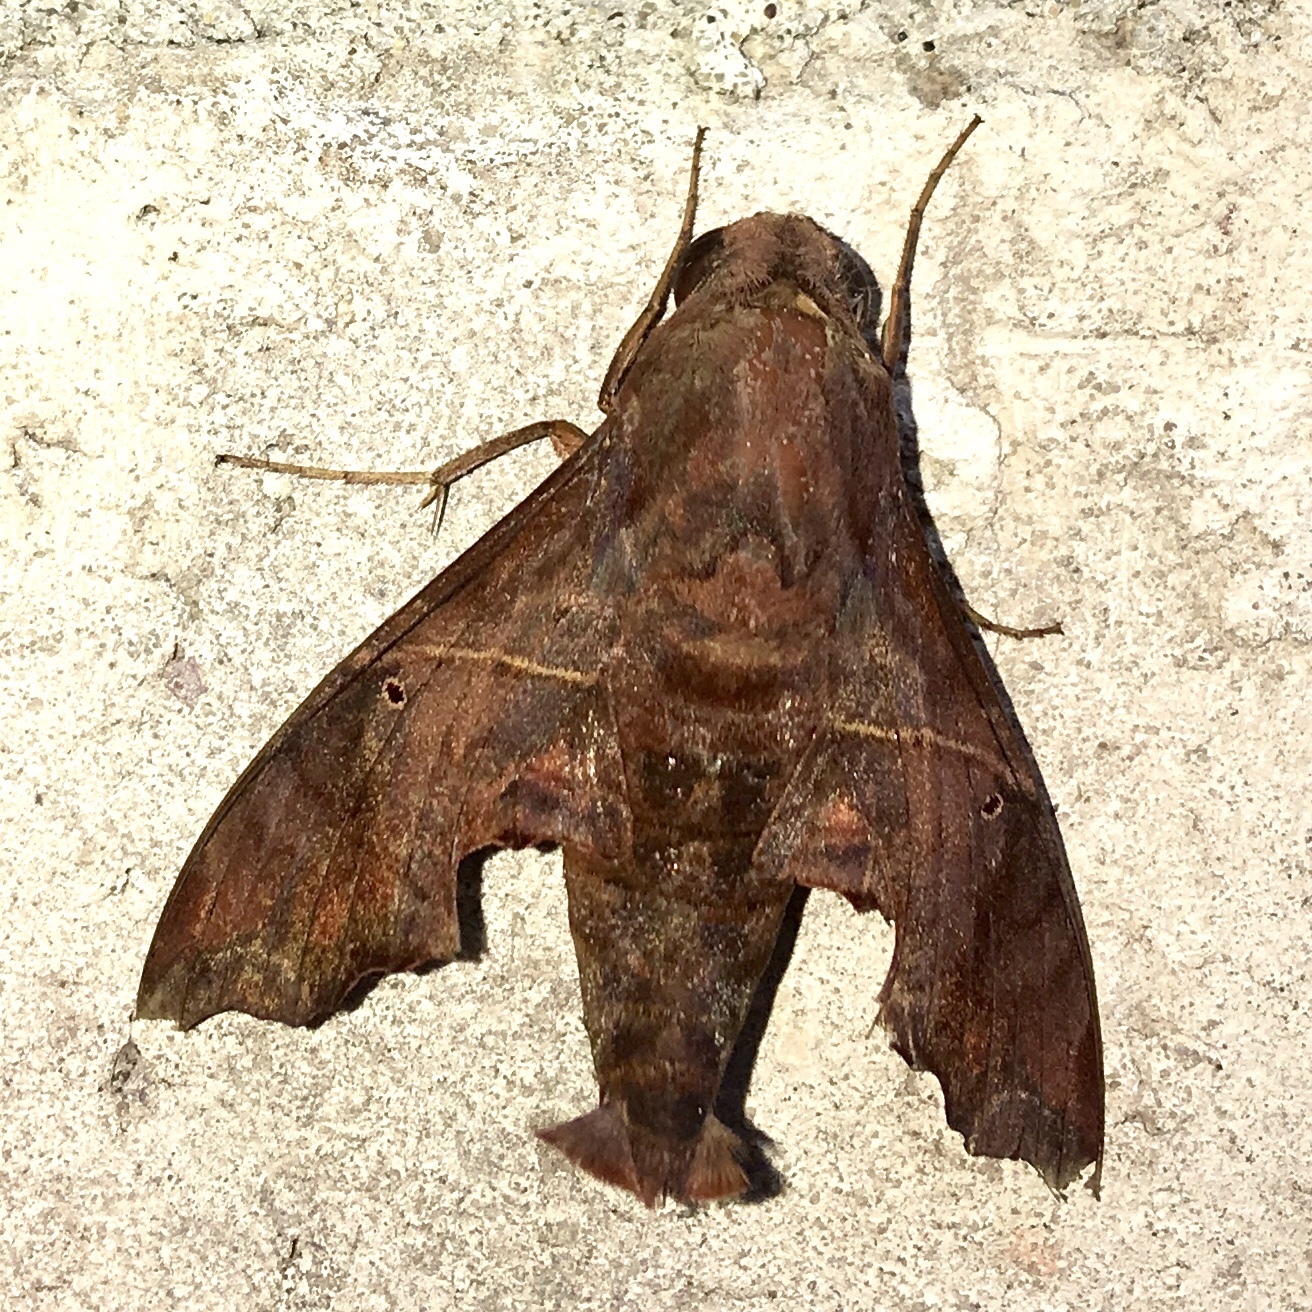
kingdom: Animalia
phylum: Arthropoda
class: Insecta
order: Lepidoptera
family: Sphingidae
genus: Enyo
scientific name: Enyo lugubris
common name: Mournful sphinx
